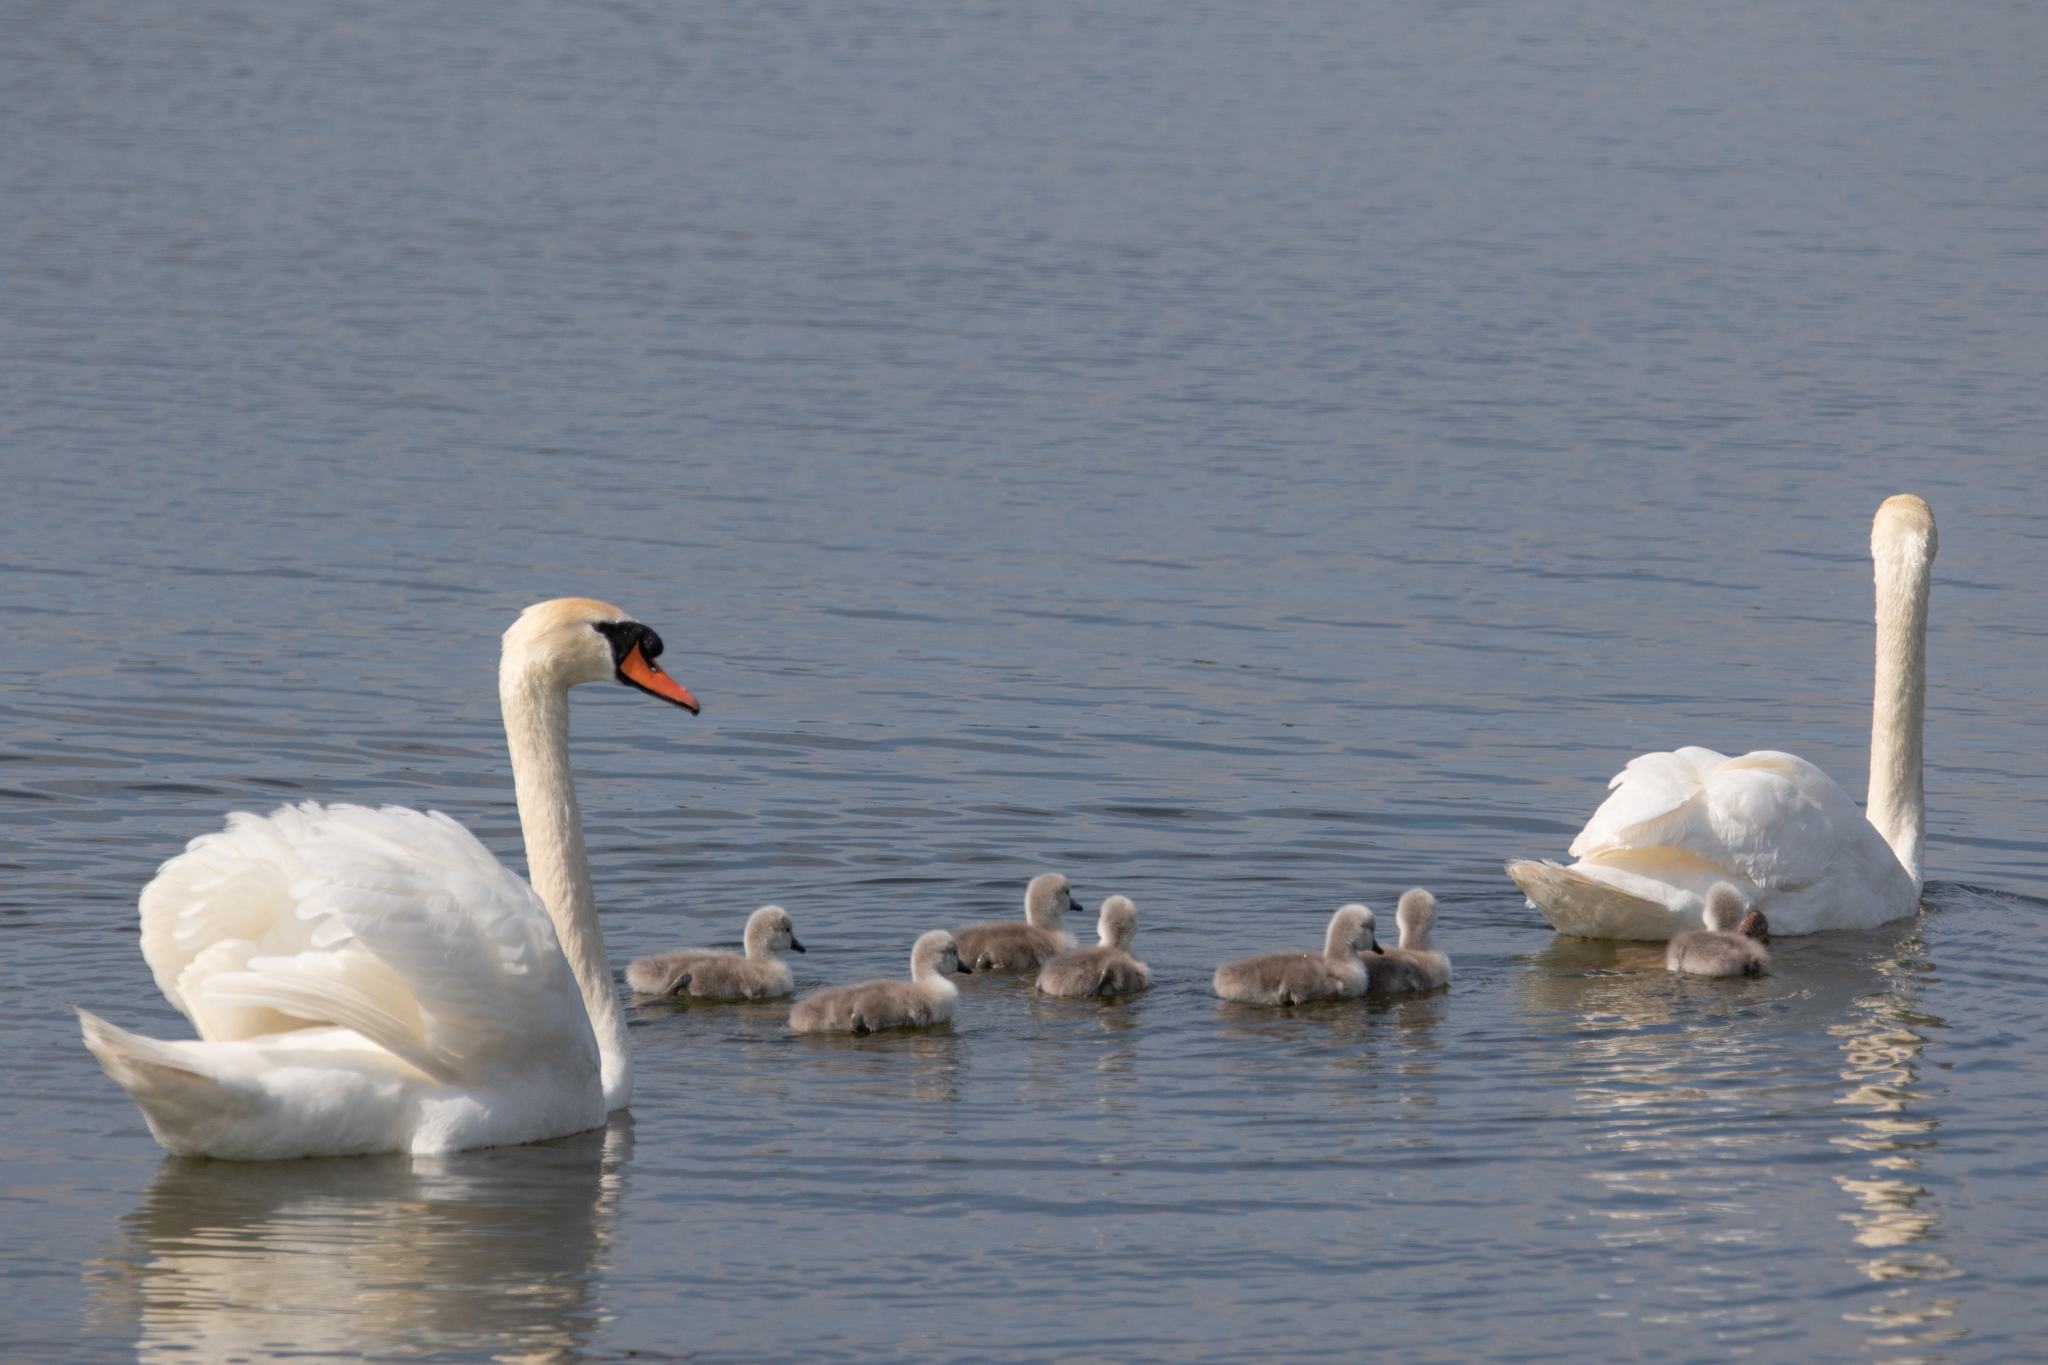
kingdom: Animalia
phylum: Chordata
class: Aves
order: Anseriformes
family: Anatidae
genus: Cygnus
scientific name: Cygnus olor
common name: Mute swan
